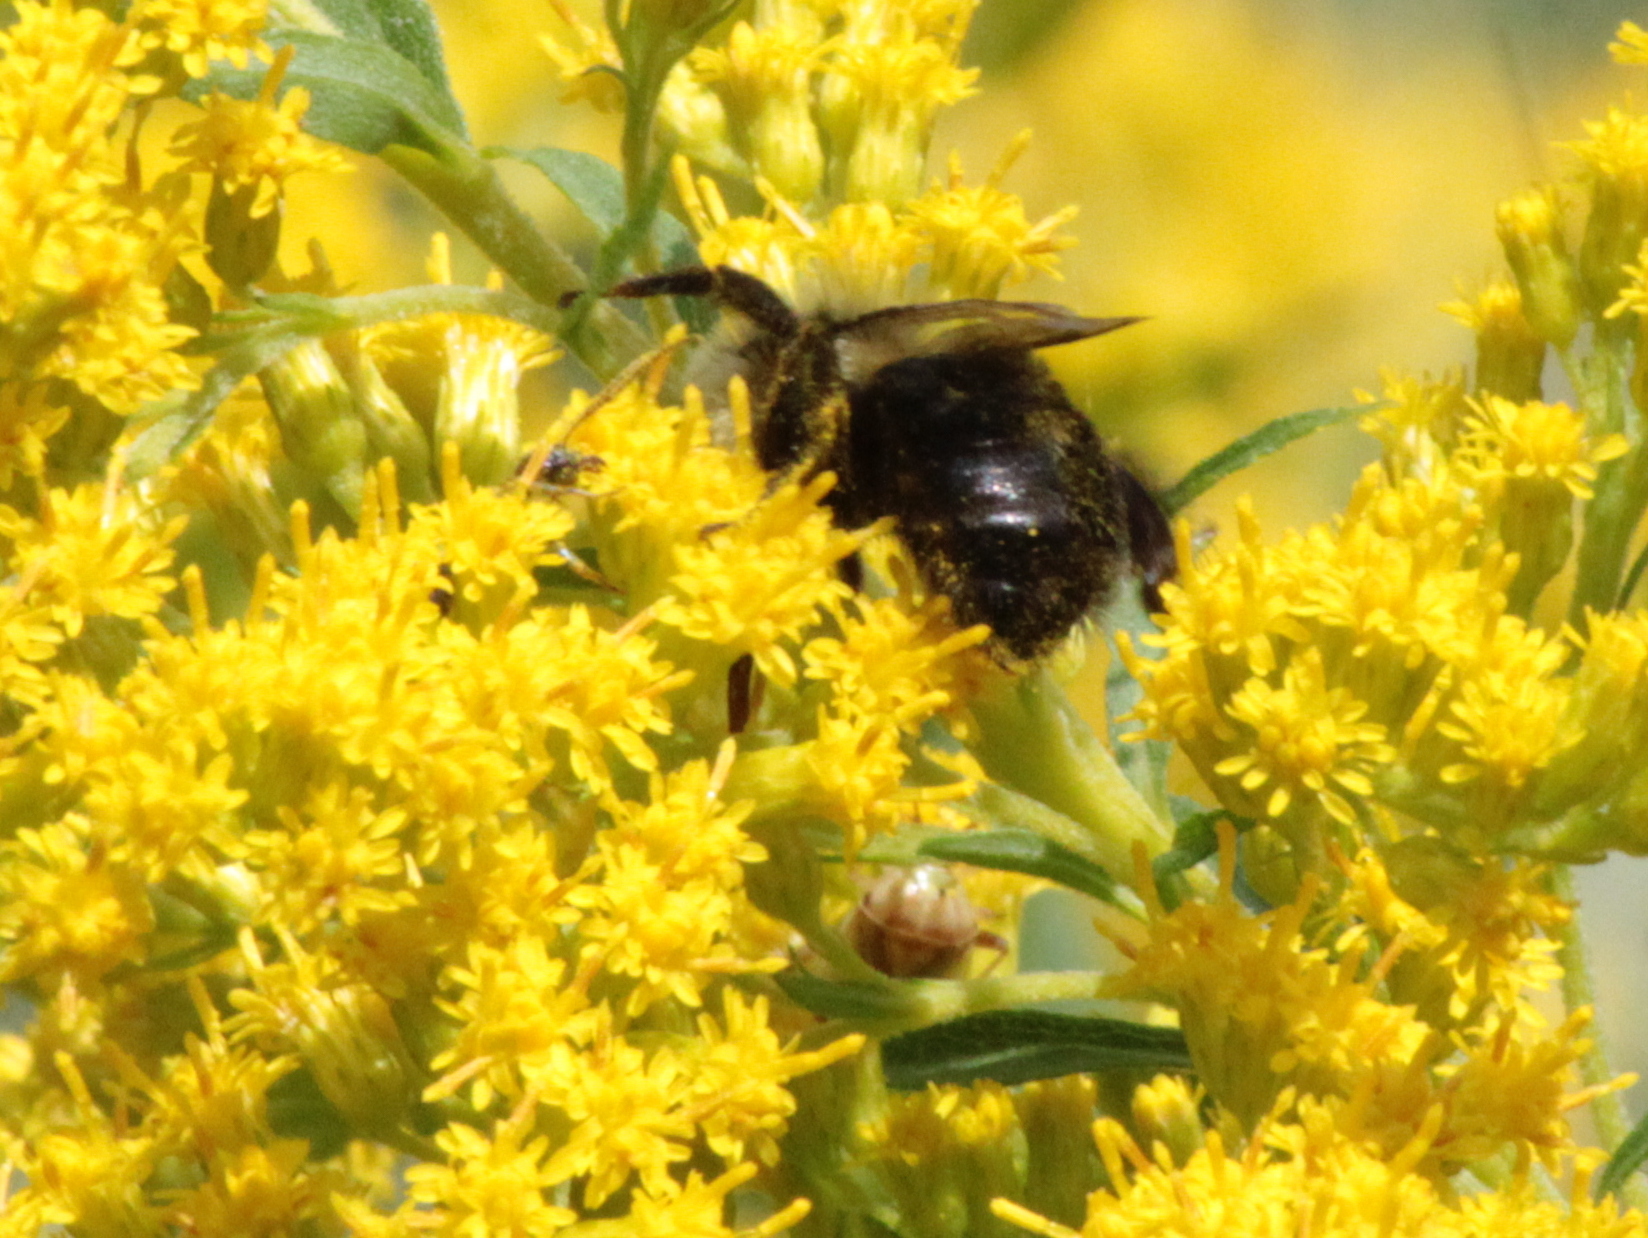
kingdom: Animalia
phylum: Arthropoda
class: Insecta
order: Hymenoptera
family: Apidae
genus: Bombus
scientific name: Bombus impatiens
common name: Common eastern bumble bee
